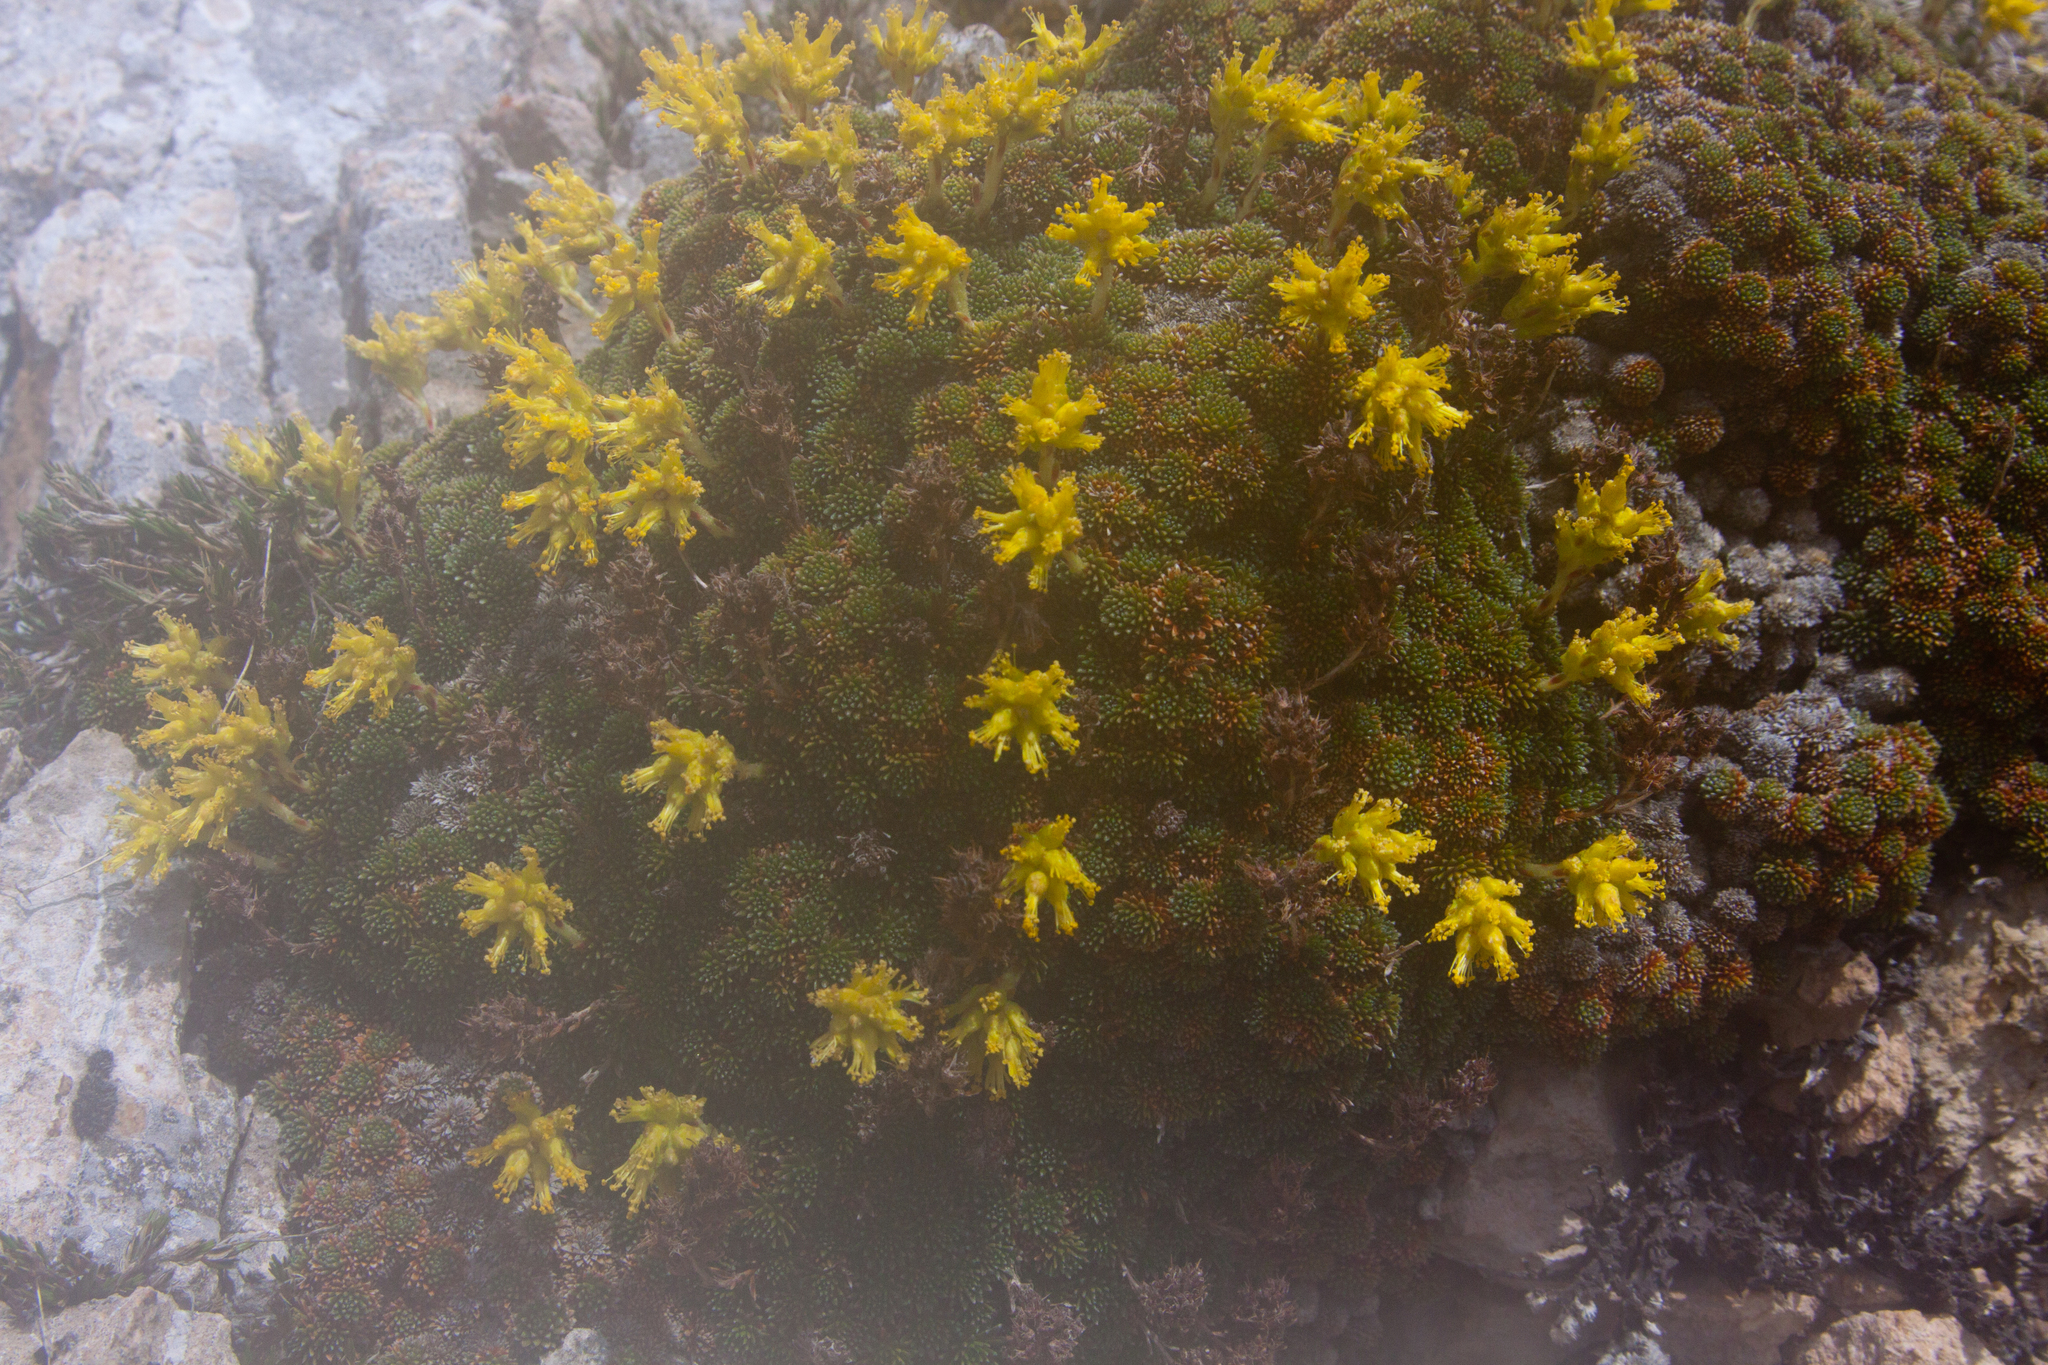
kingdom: Plantae
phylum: Tracheophyta
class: Magnoliopsida
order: Saxifragales
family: Saxifragaceae
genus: Saxifraga
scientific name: Saxifraga scleropoda
